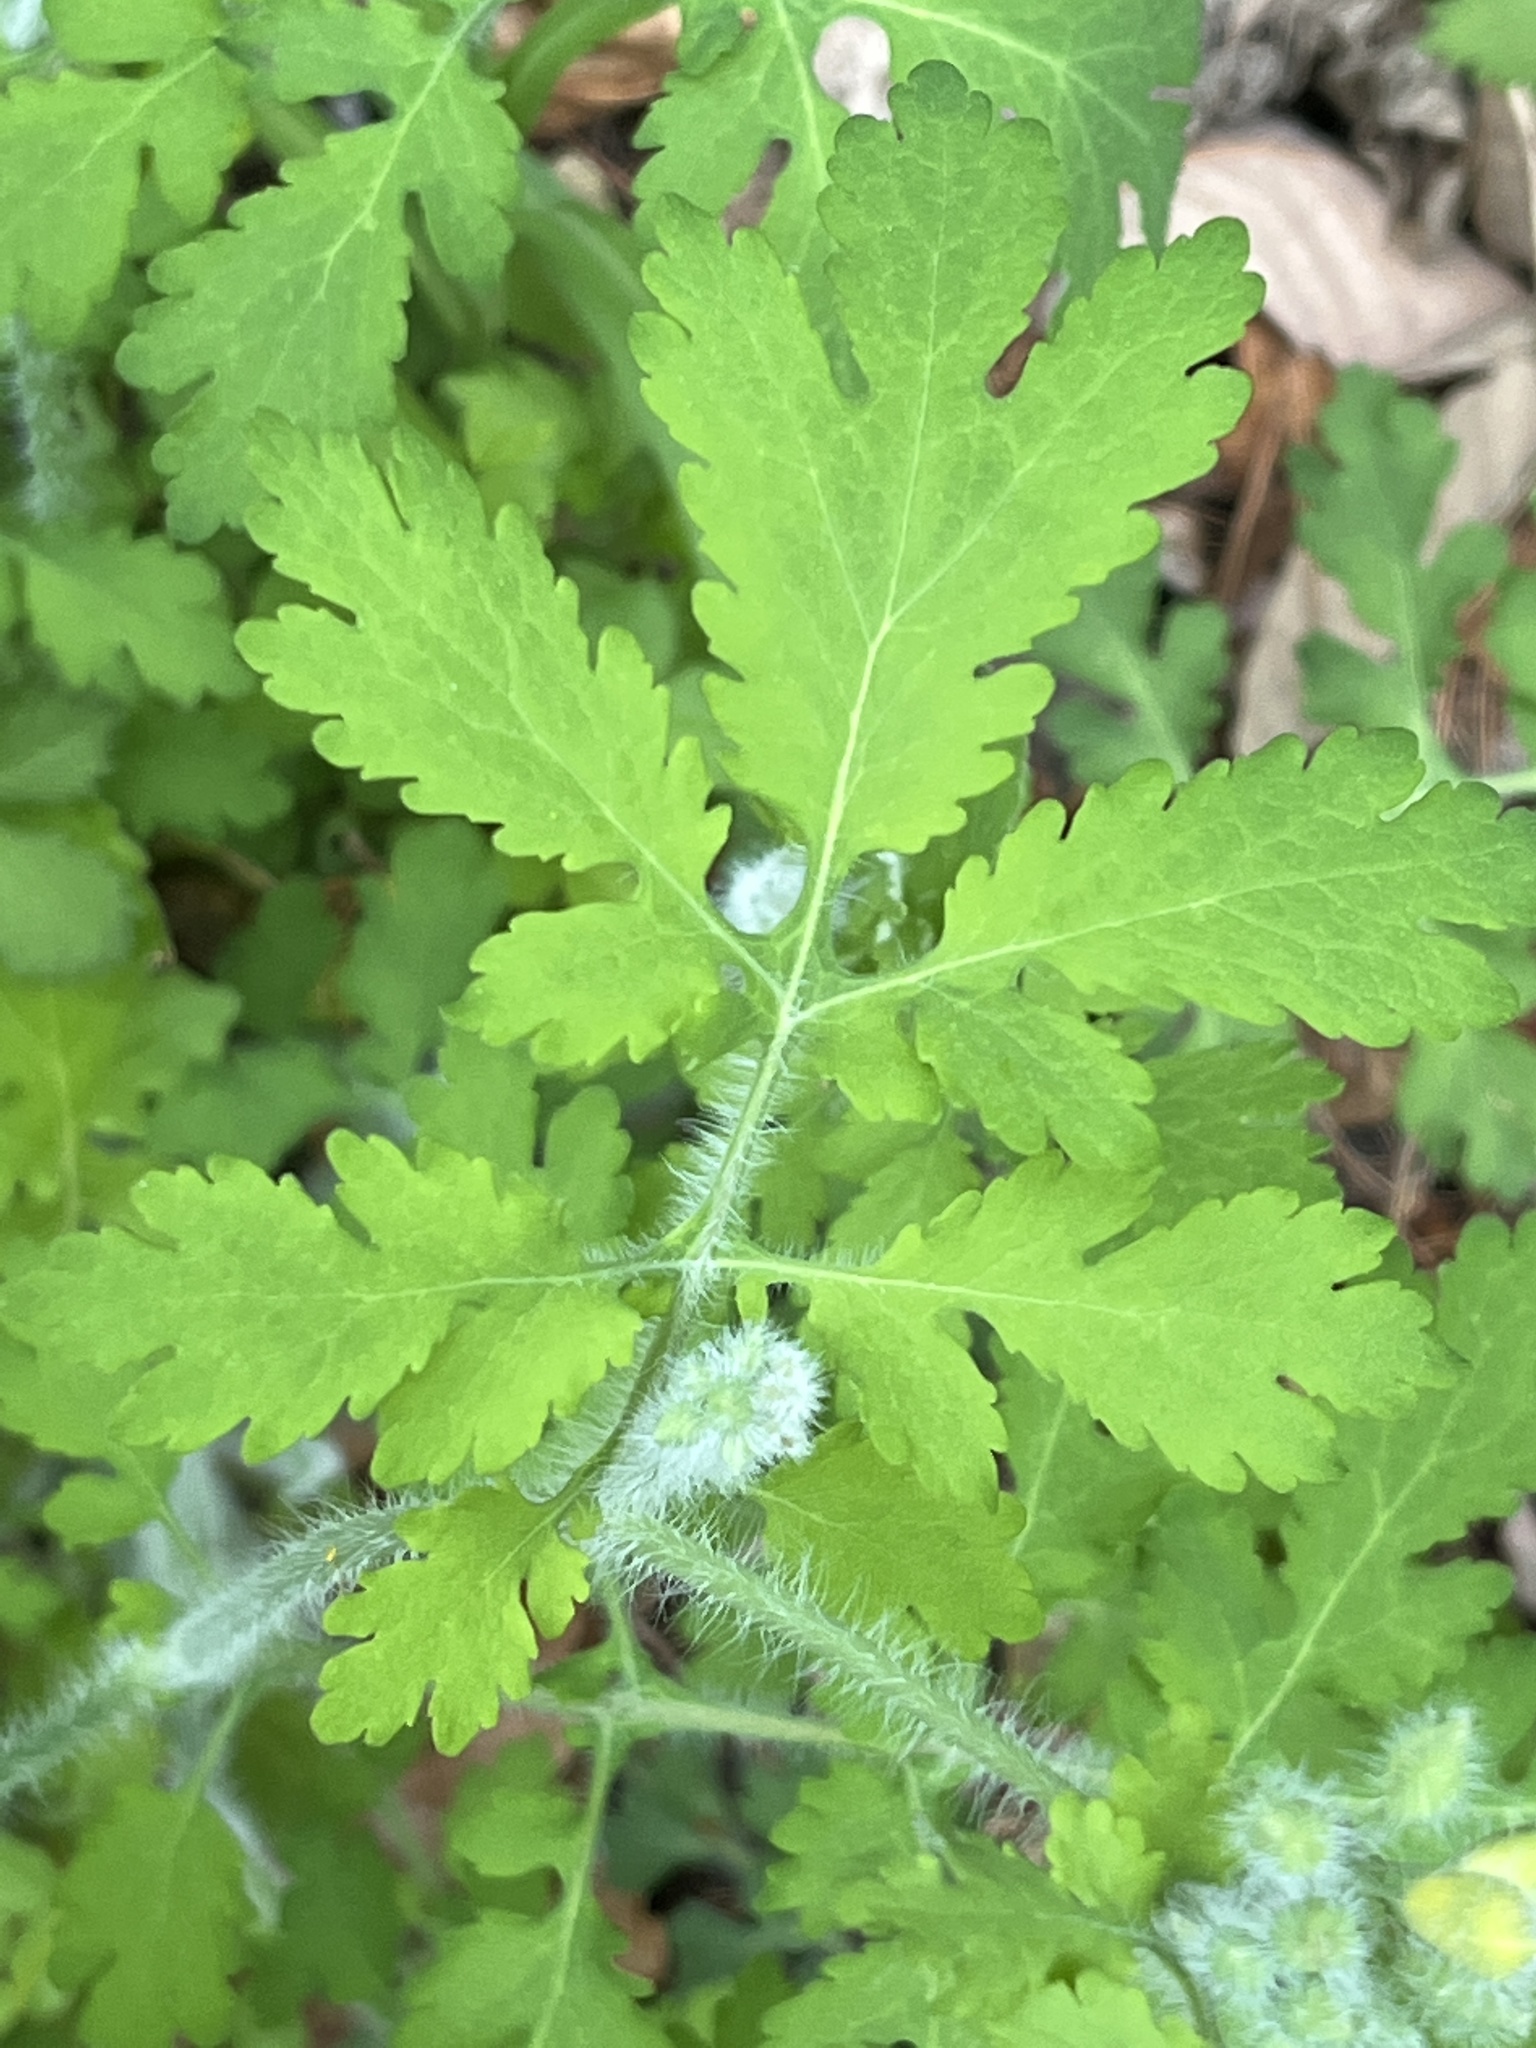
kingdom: Plantae
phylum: Tracheophyta
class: Magnoliopsida
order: Ranunculales
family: Papaveraceae
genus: Chelidonium
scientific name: Chelidonium majus
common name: Greater celandine
